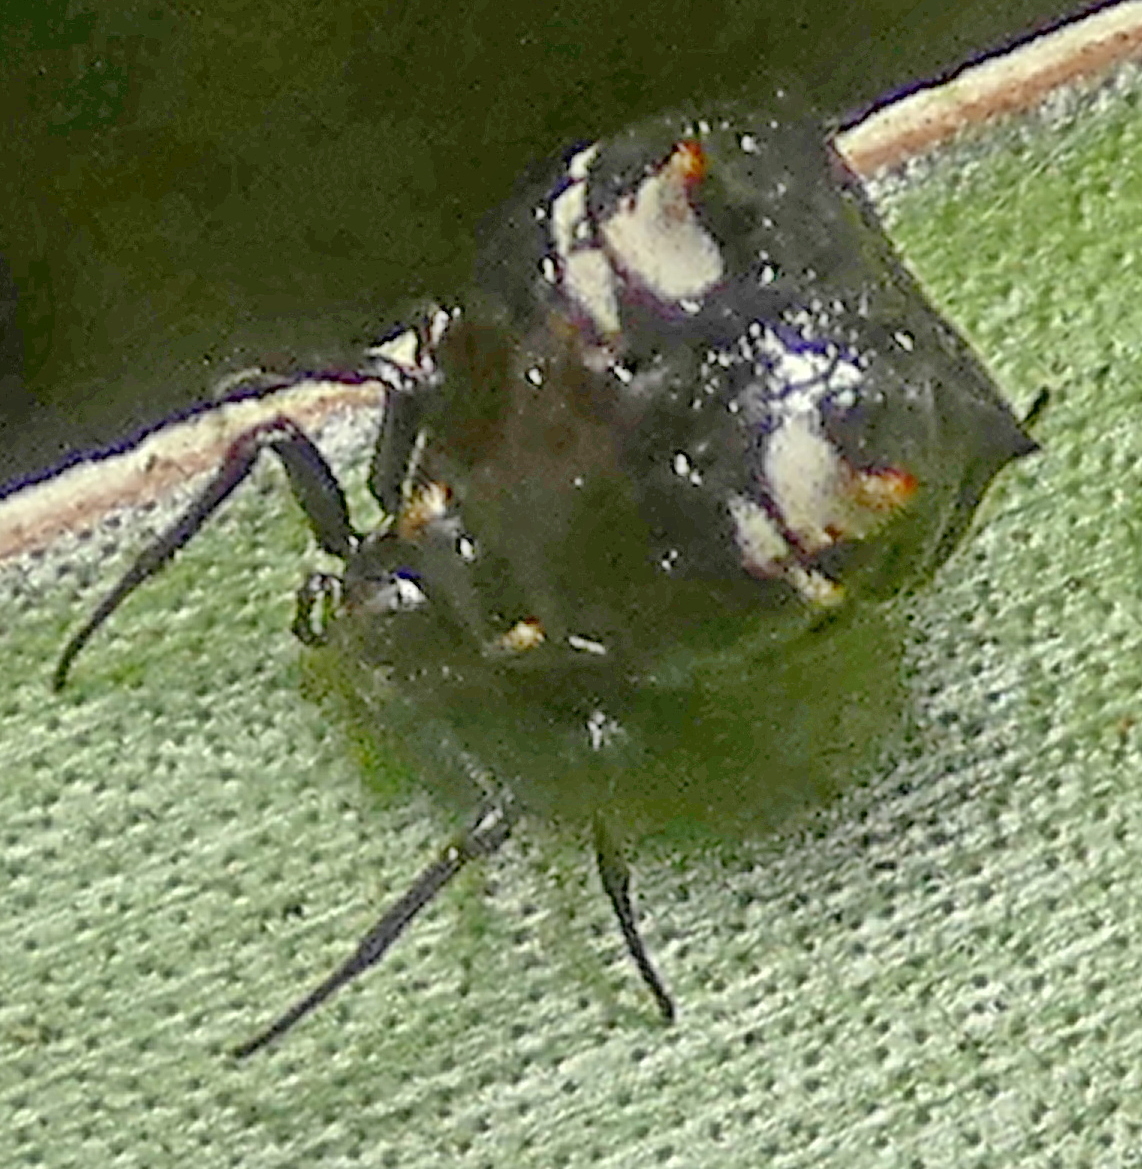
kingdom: Animalia
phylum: Arthropoda
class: Arachnida
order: Araneae
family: Araneidae
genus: Micrathena
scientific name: Micrathena patruelis
